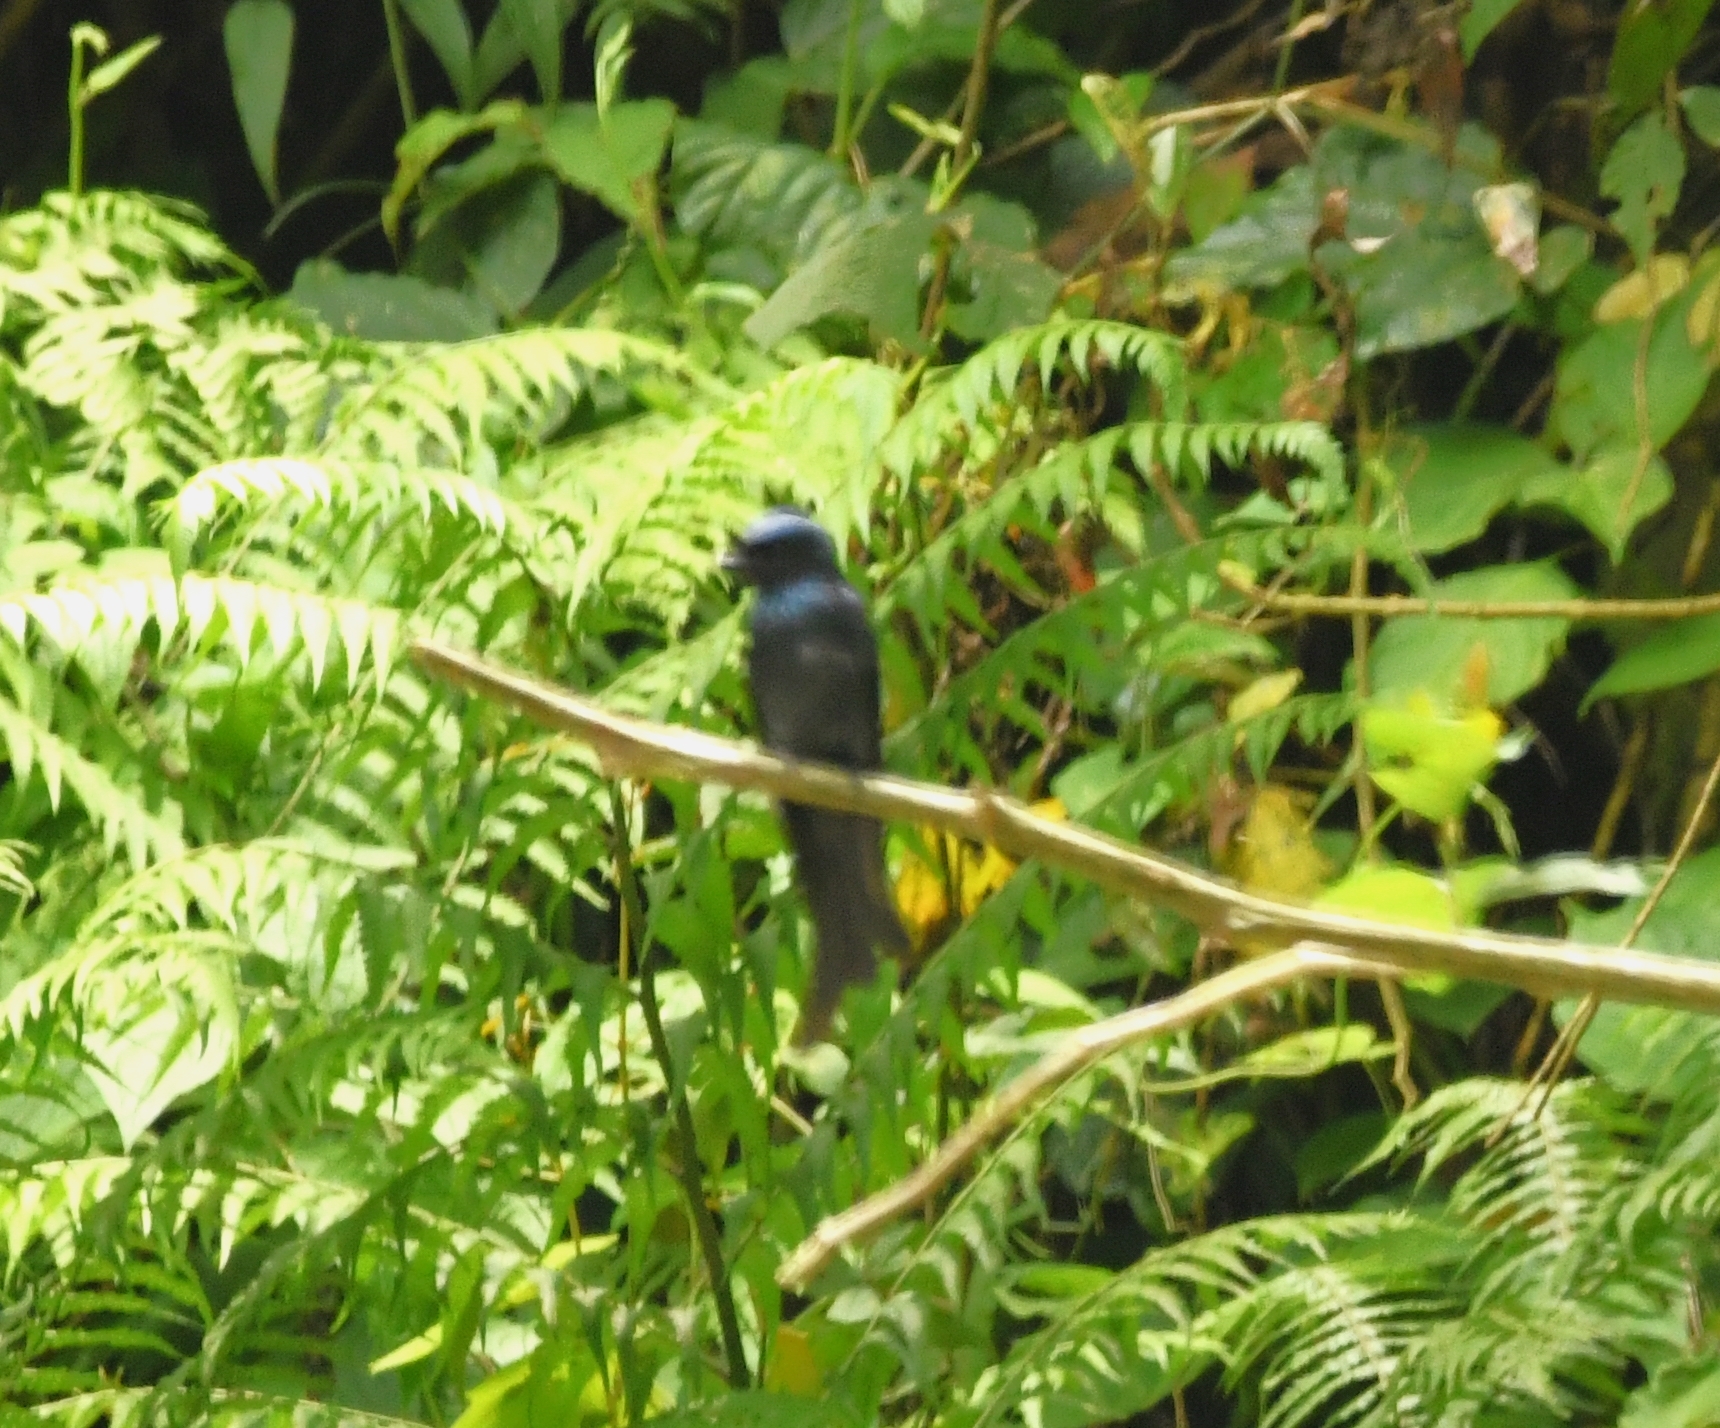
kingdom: Animalia
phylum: Chordata
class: Aves
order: Passeriformes
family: Dicruridae
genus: Dicrurus
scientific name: Dicrurus aeneus
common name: Bronzed drongo
